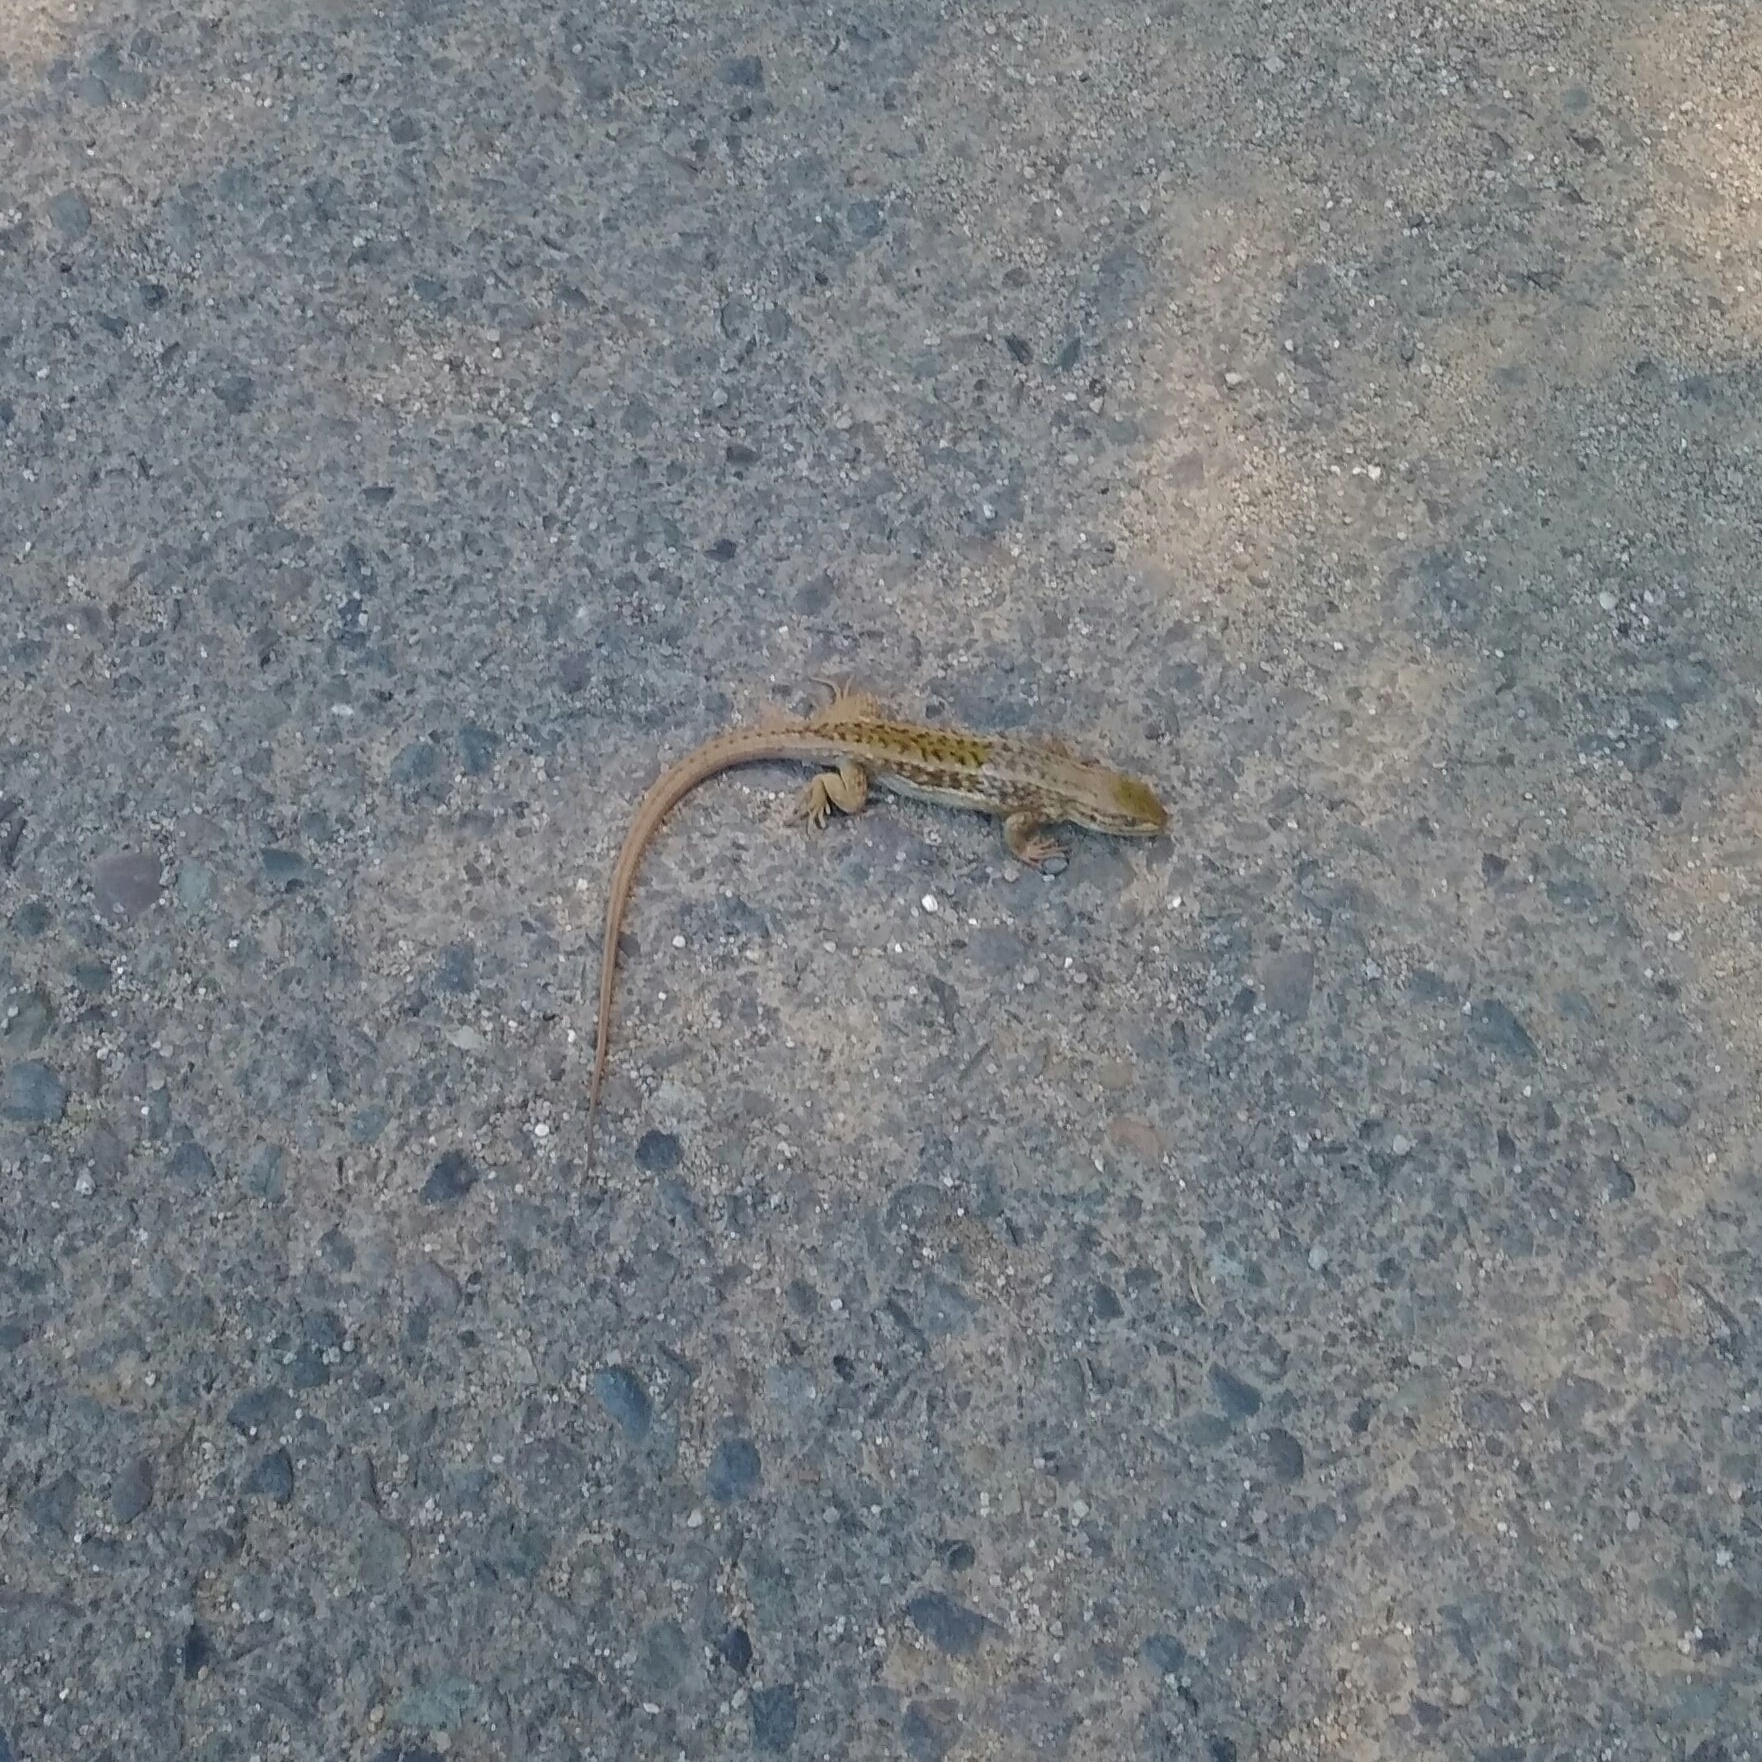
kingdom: Animalia
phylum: Chordata
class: Squamata
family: Liolaemidae
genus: Liolaemus
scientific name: Liolaemus chiliensis
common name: Chilean tree iguana
